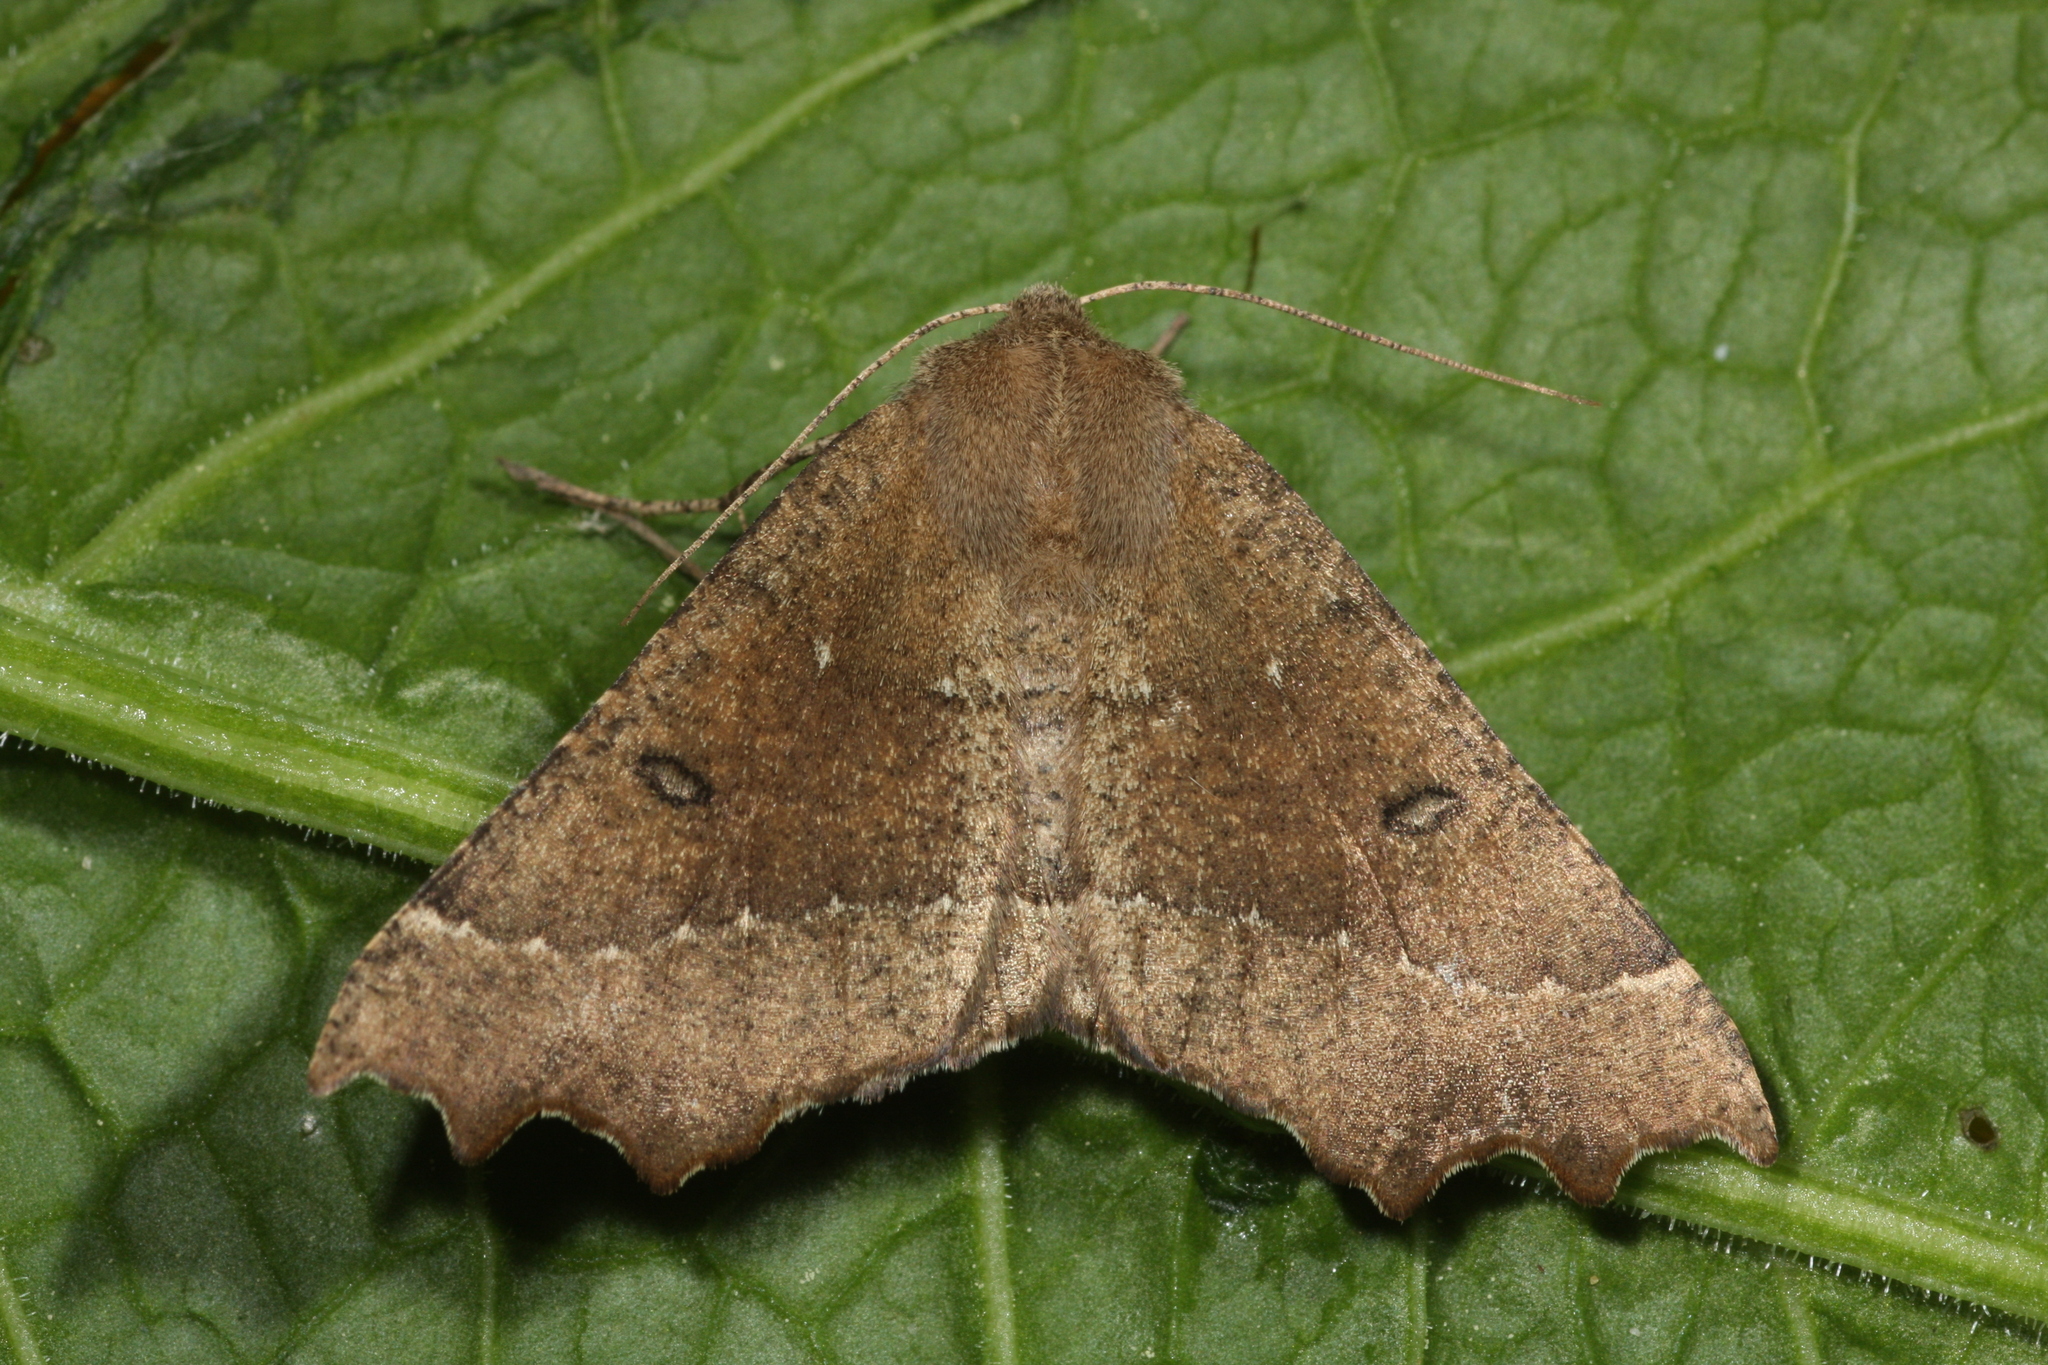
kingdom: Animalia
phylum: Arthropoda
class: Insecta
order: Lepidoptera
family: Geometridae
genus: Odontopera
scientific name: Odontopera bidentata
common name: Scalloped hazel
